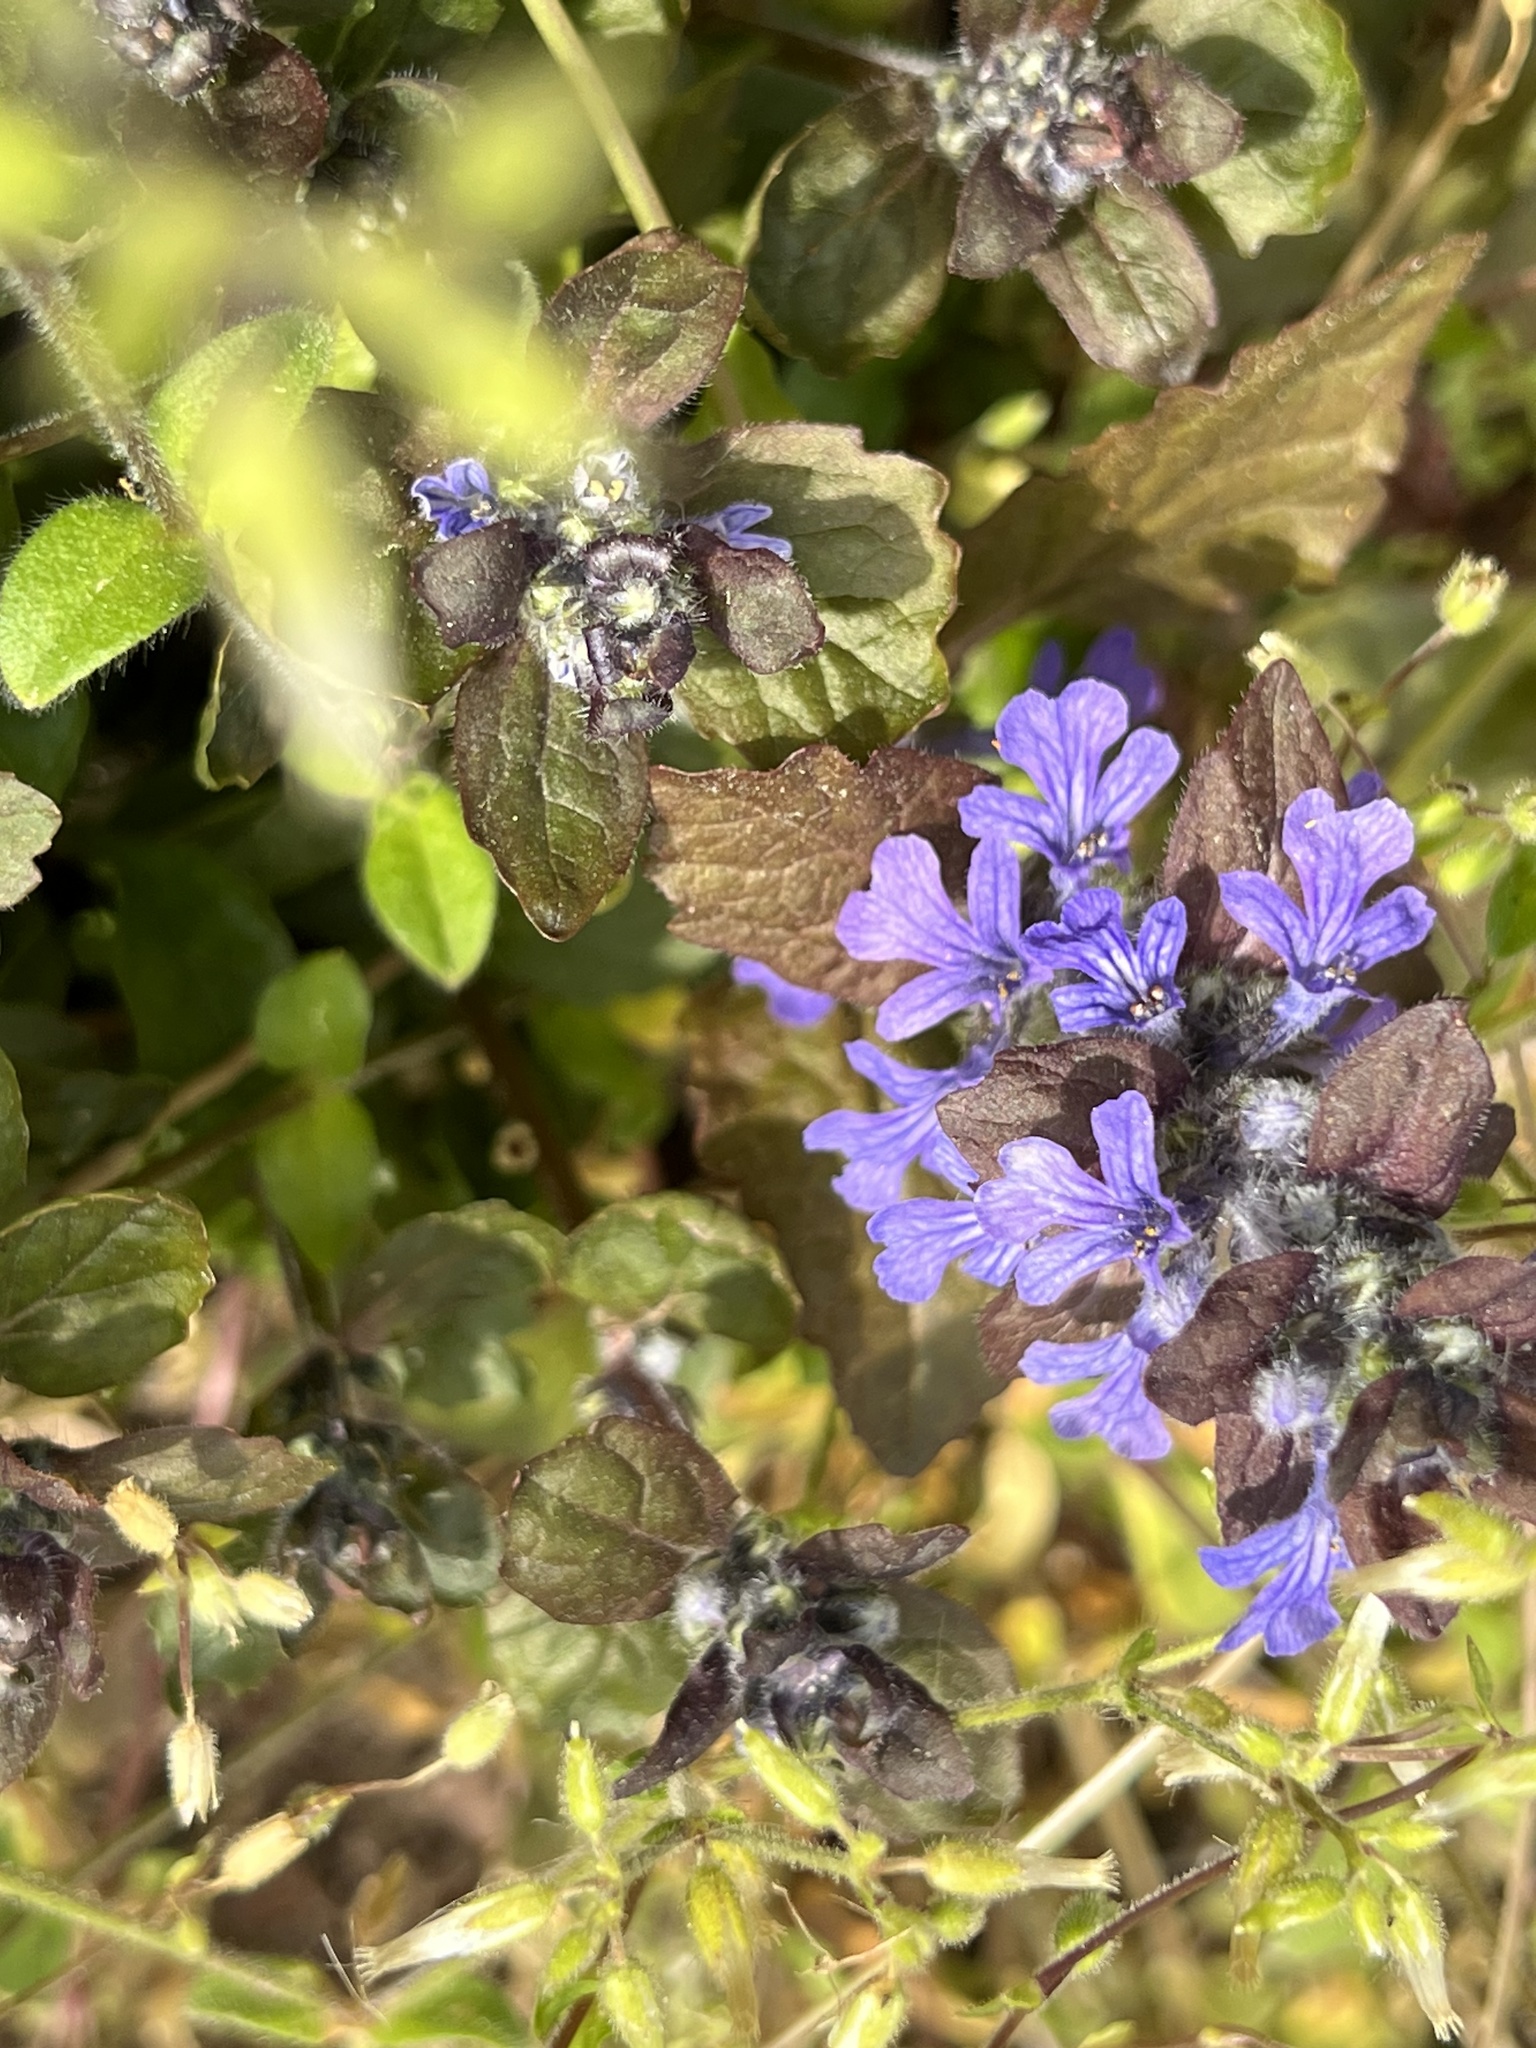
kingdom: Plantae
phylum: Tracheophyta
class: Magnoliopsida
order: Lamiales
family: Lamiaceae
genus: Ajuga
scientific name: Ajuga reptans
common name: Bugle
